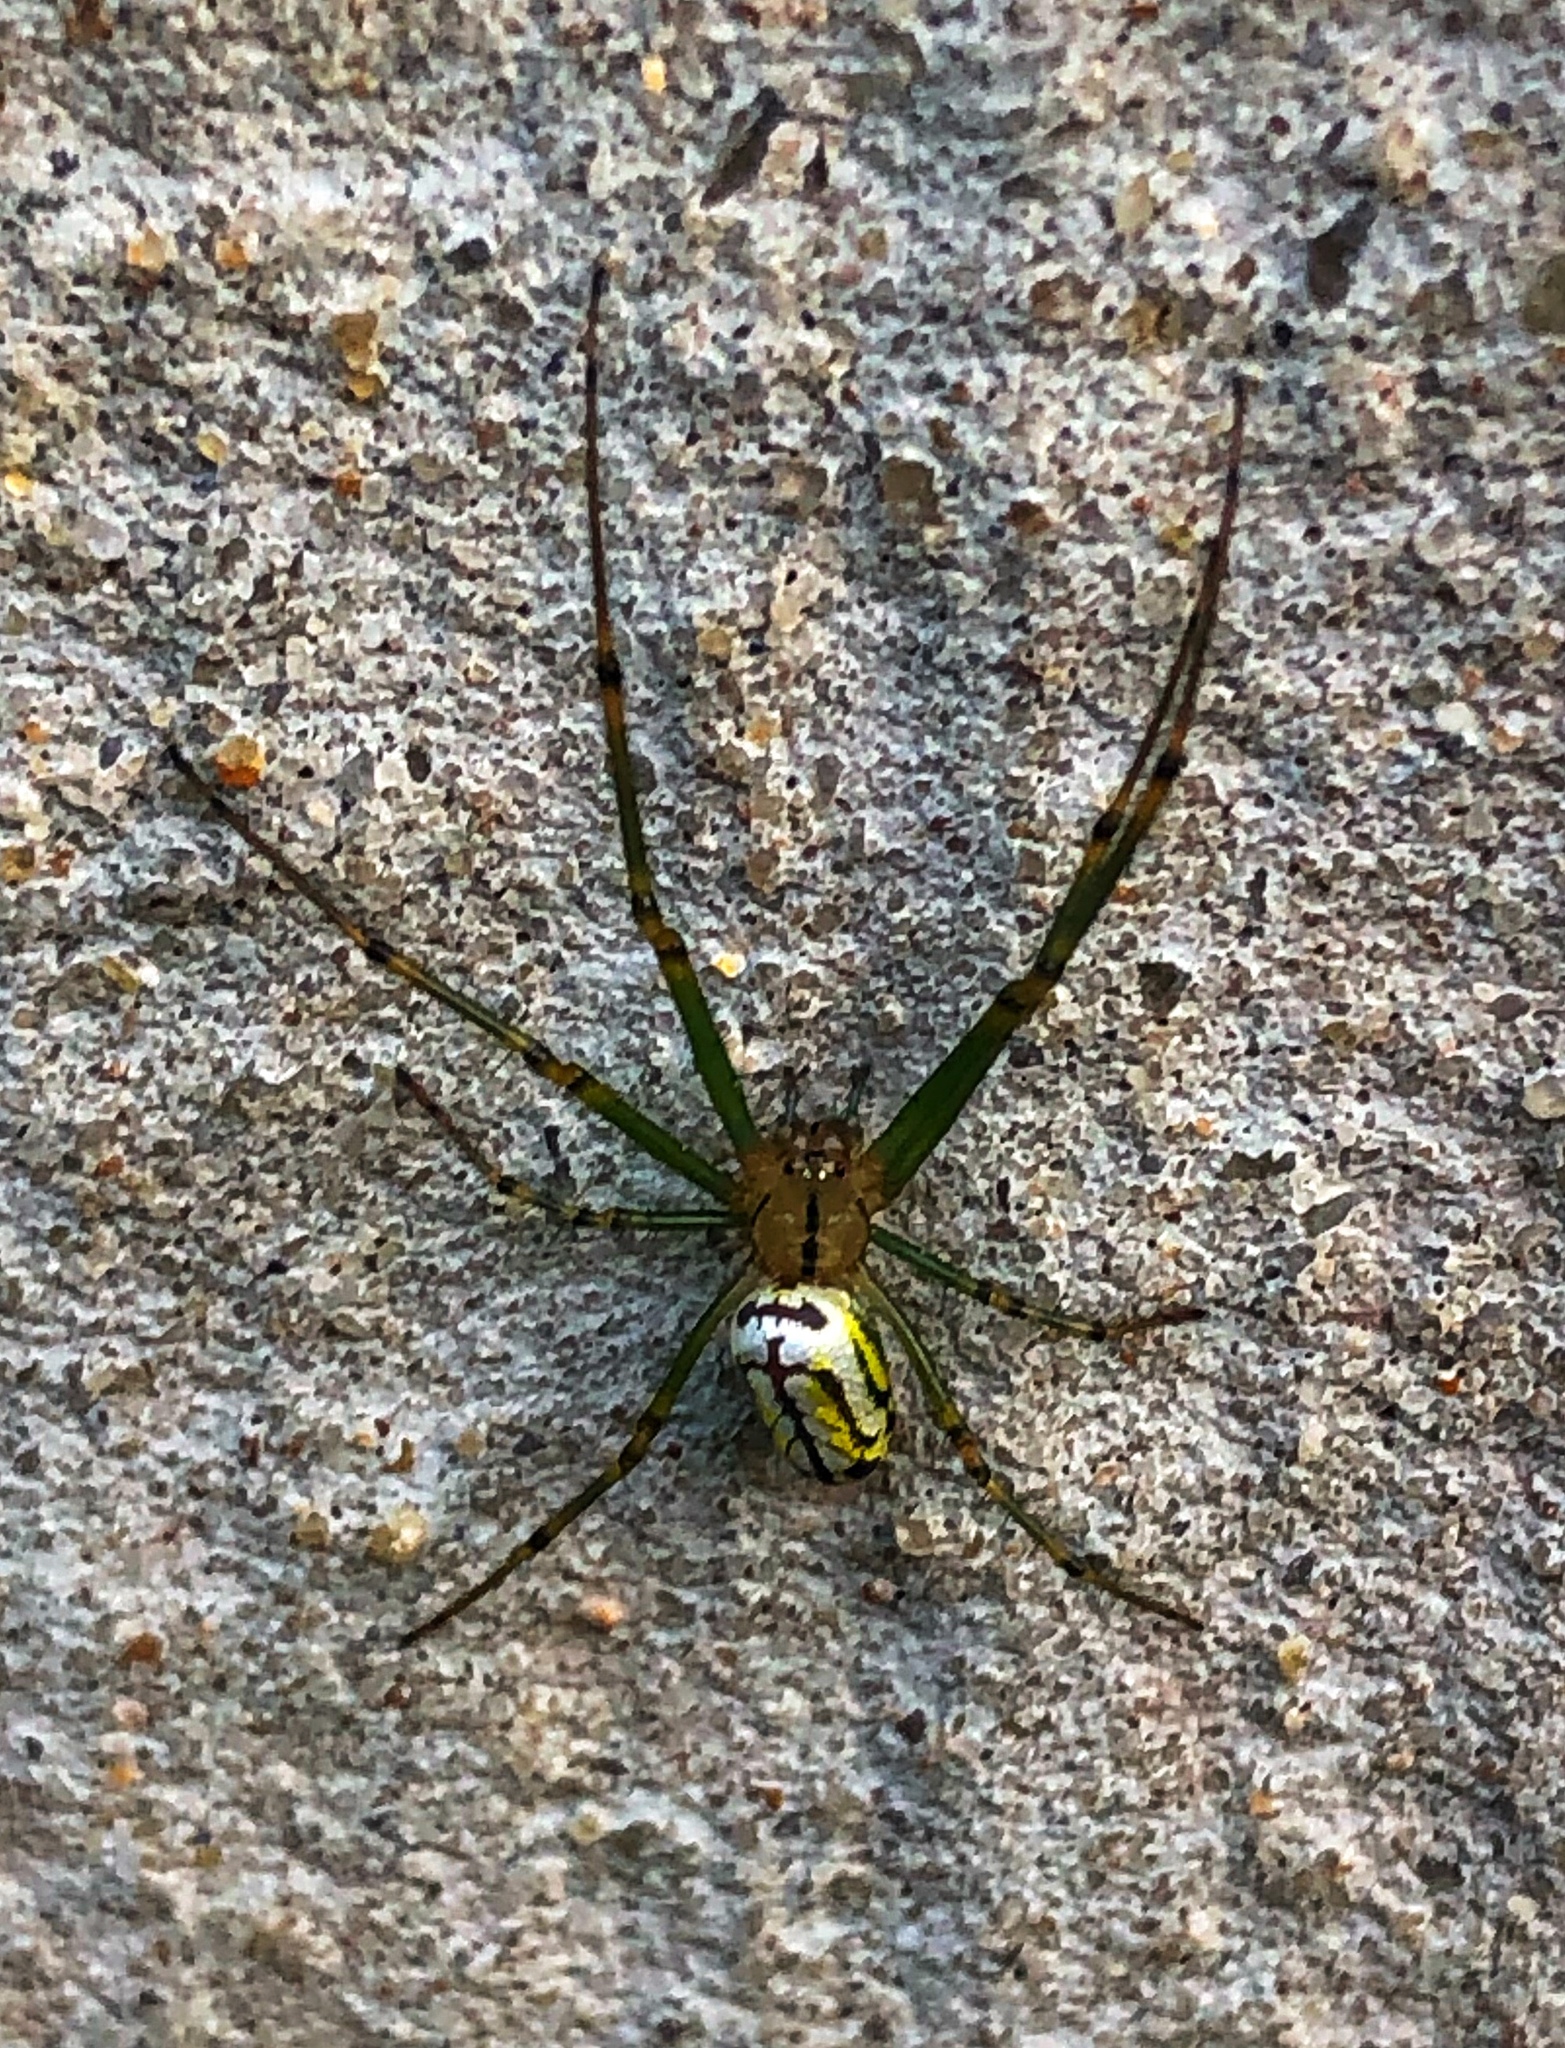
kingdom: Animalia
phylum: Arthropoda
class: Arachnida
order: Araneae
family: Tetragnathidae
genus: Leucauge
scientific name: Leucauge venusta
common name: Longjawed orb weavers
